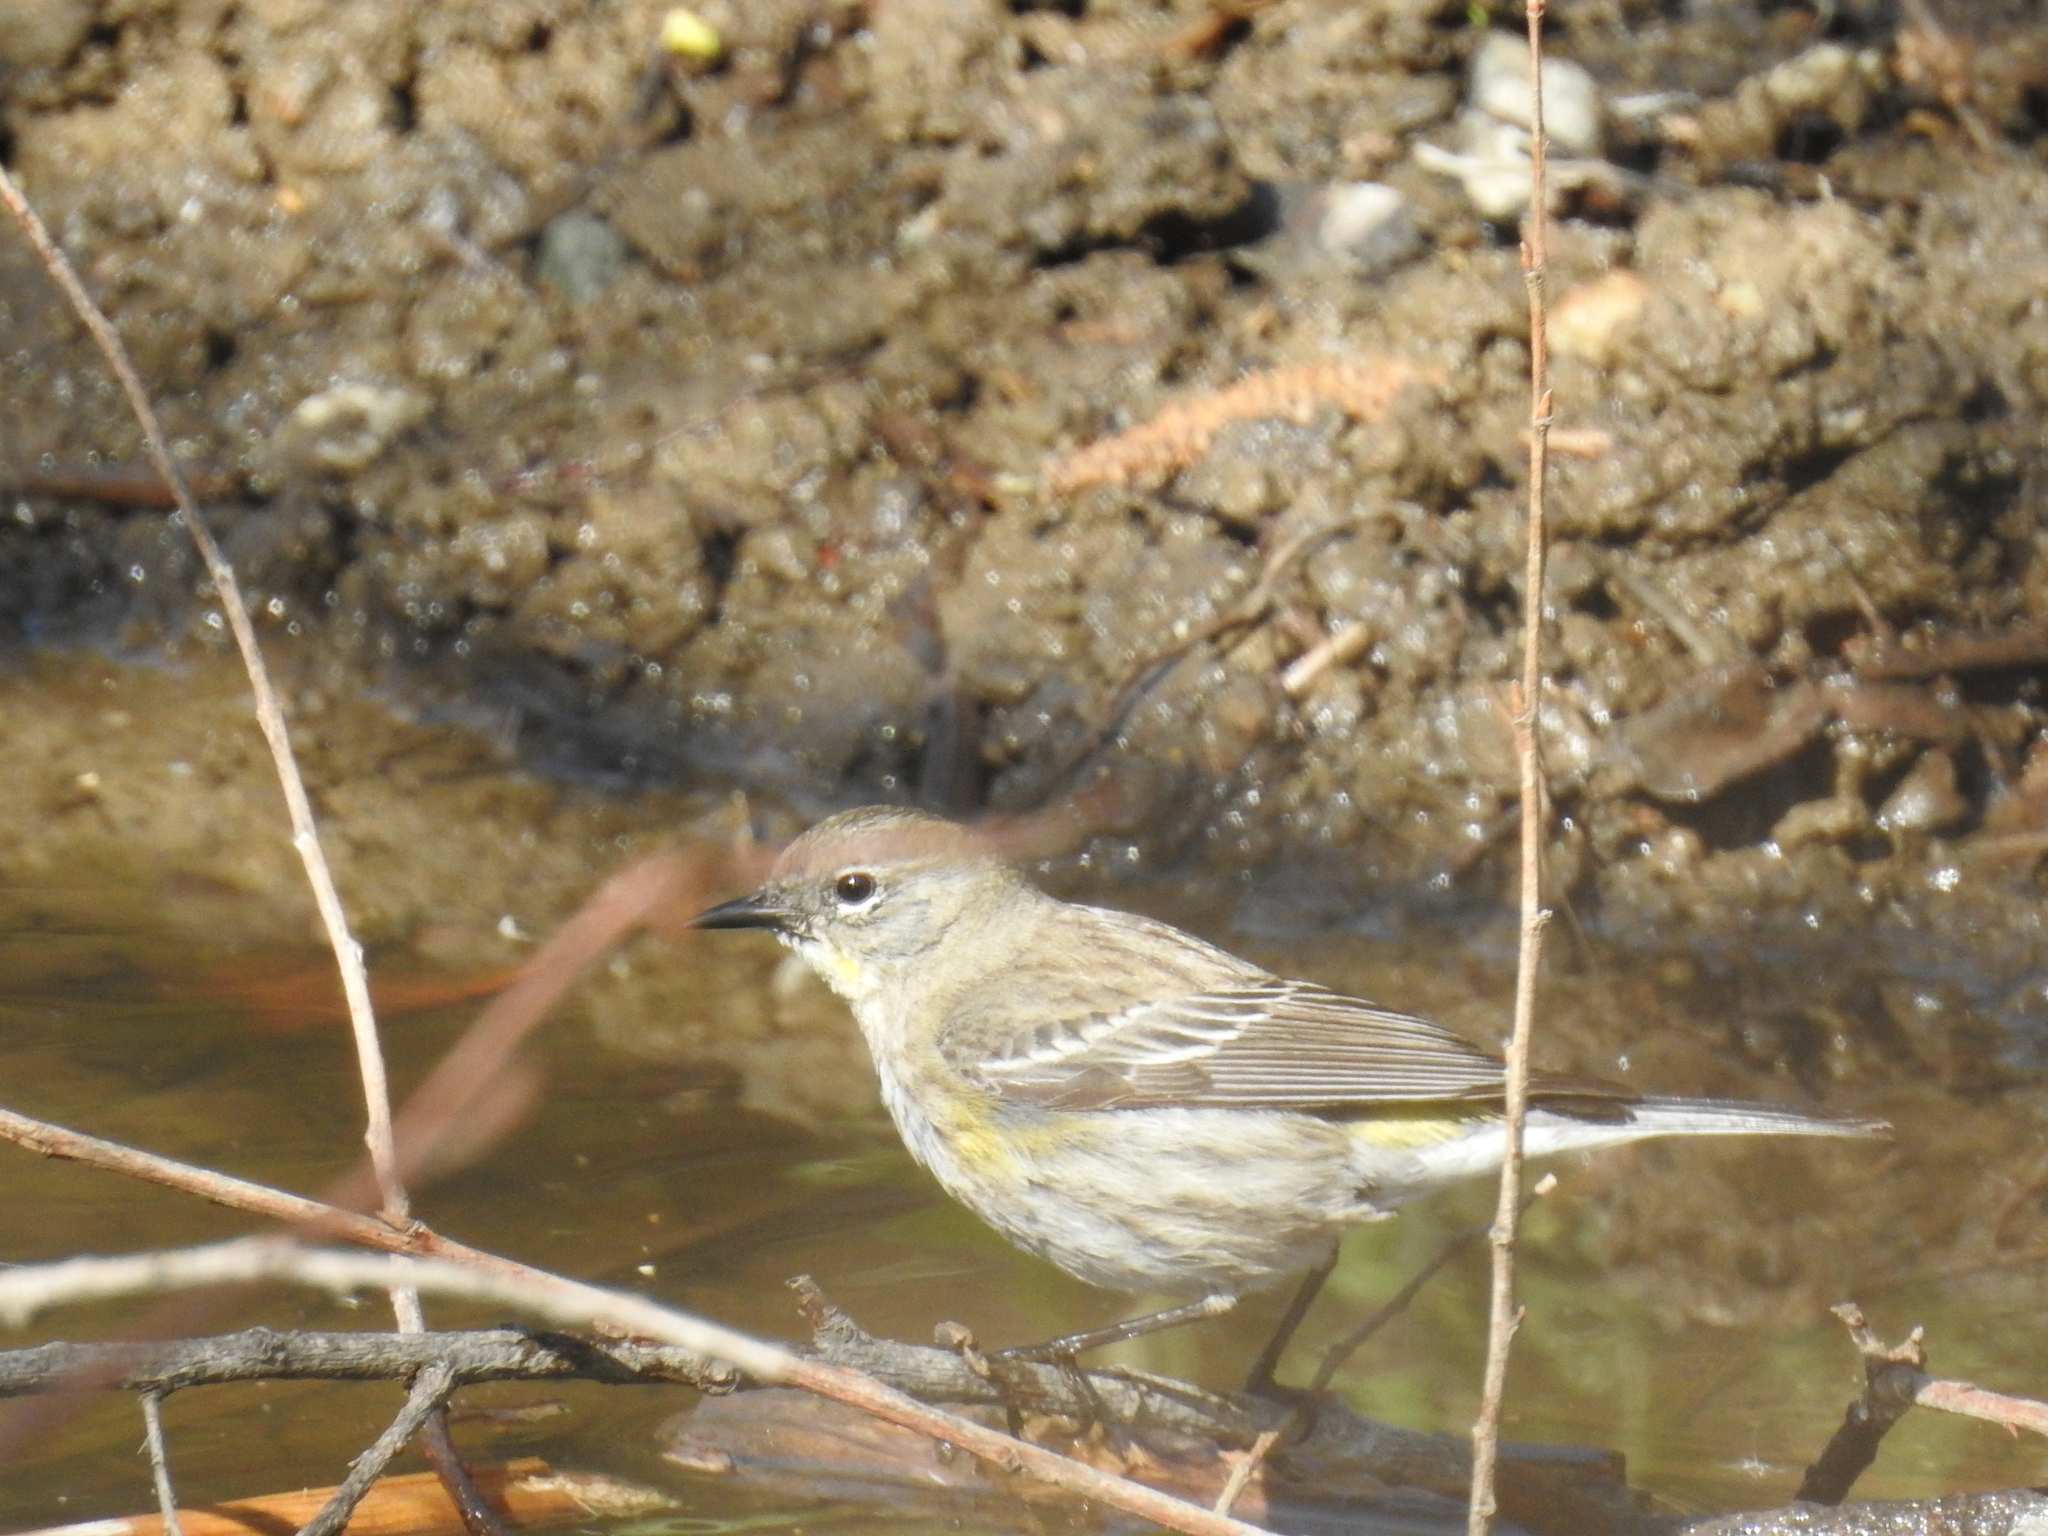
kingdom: Animalia
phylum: Chordata
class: Aves
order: Passeriformes
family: Parulidae
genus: Setophaga
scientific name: Setophaga coronata
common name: Myrtle warbler
